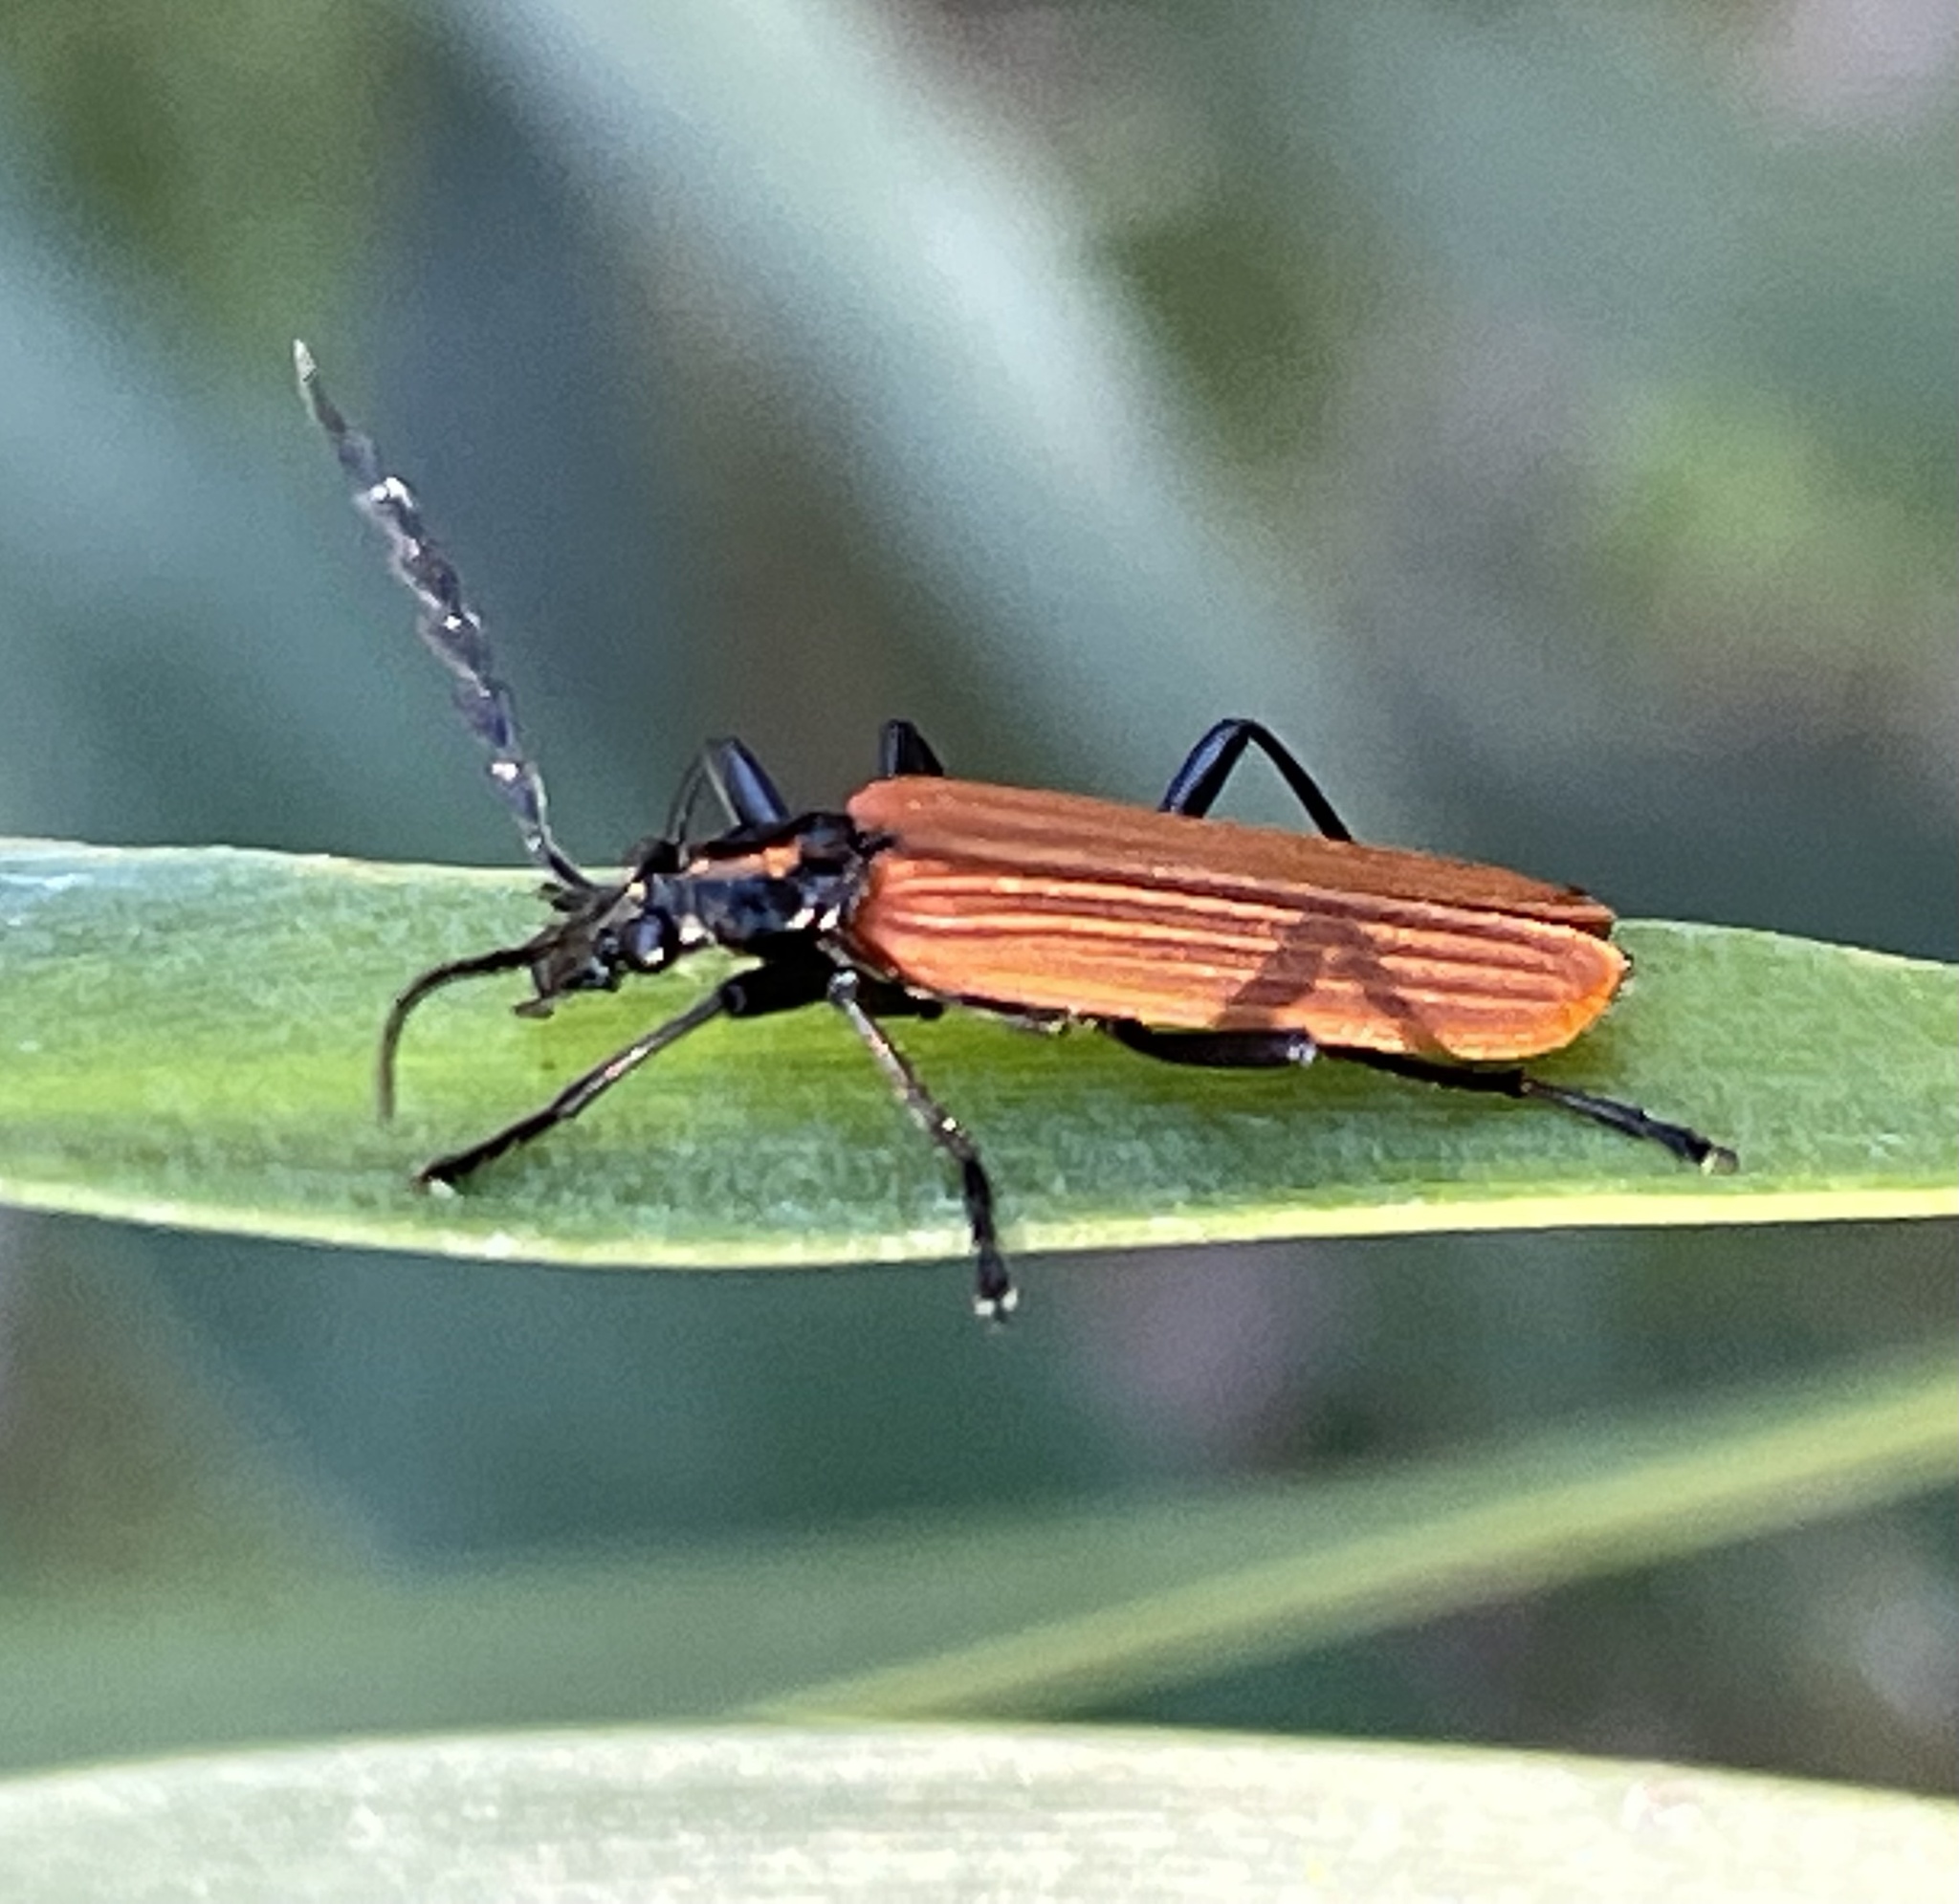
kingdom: Animalia
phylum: Arthropoda
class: Insecta
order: Coleoptera
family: Oedemeridae
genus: Pseudolycus
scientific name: Pseudolycus
